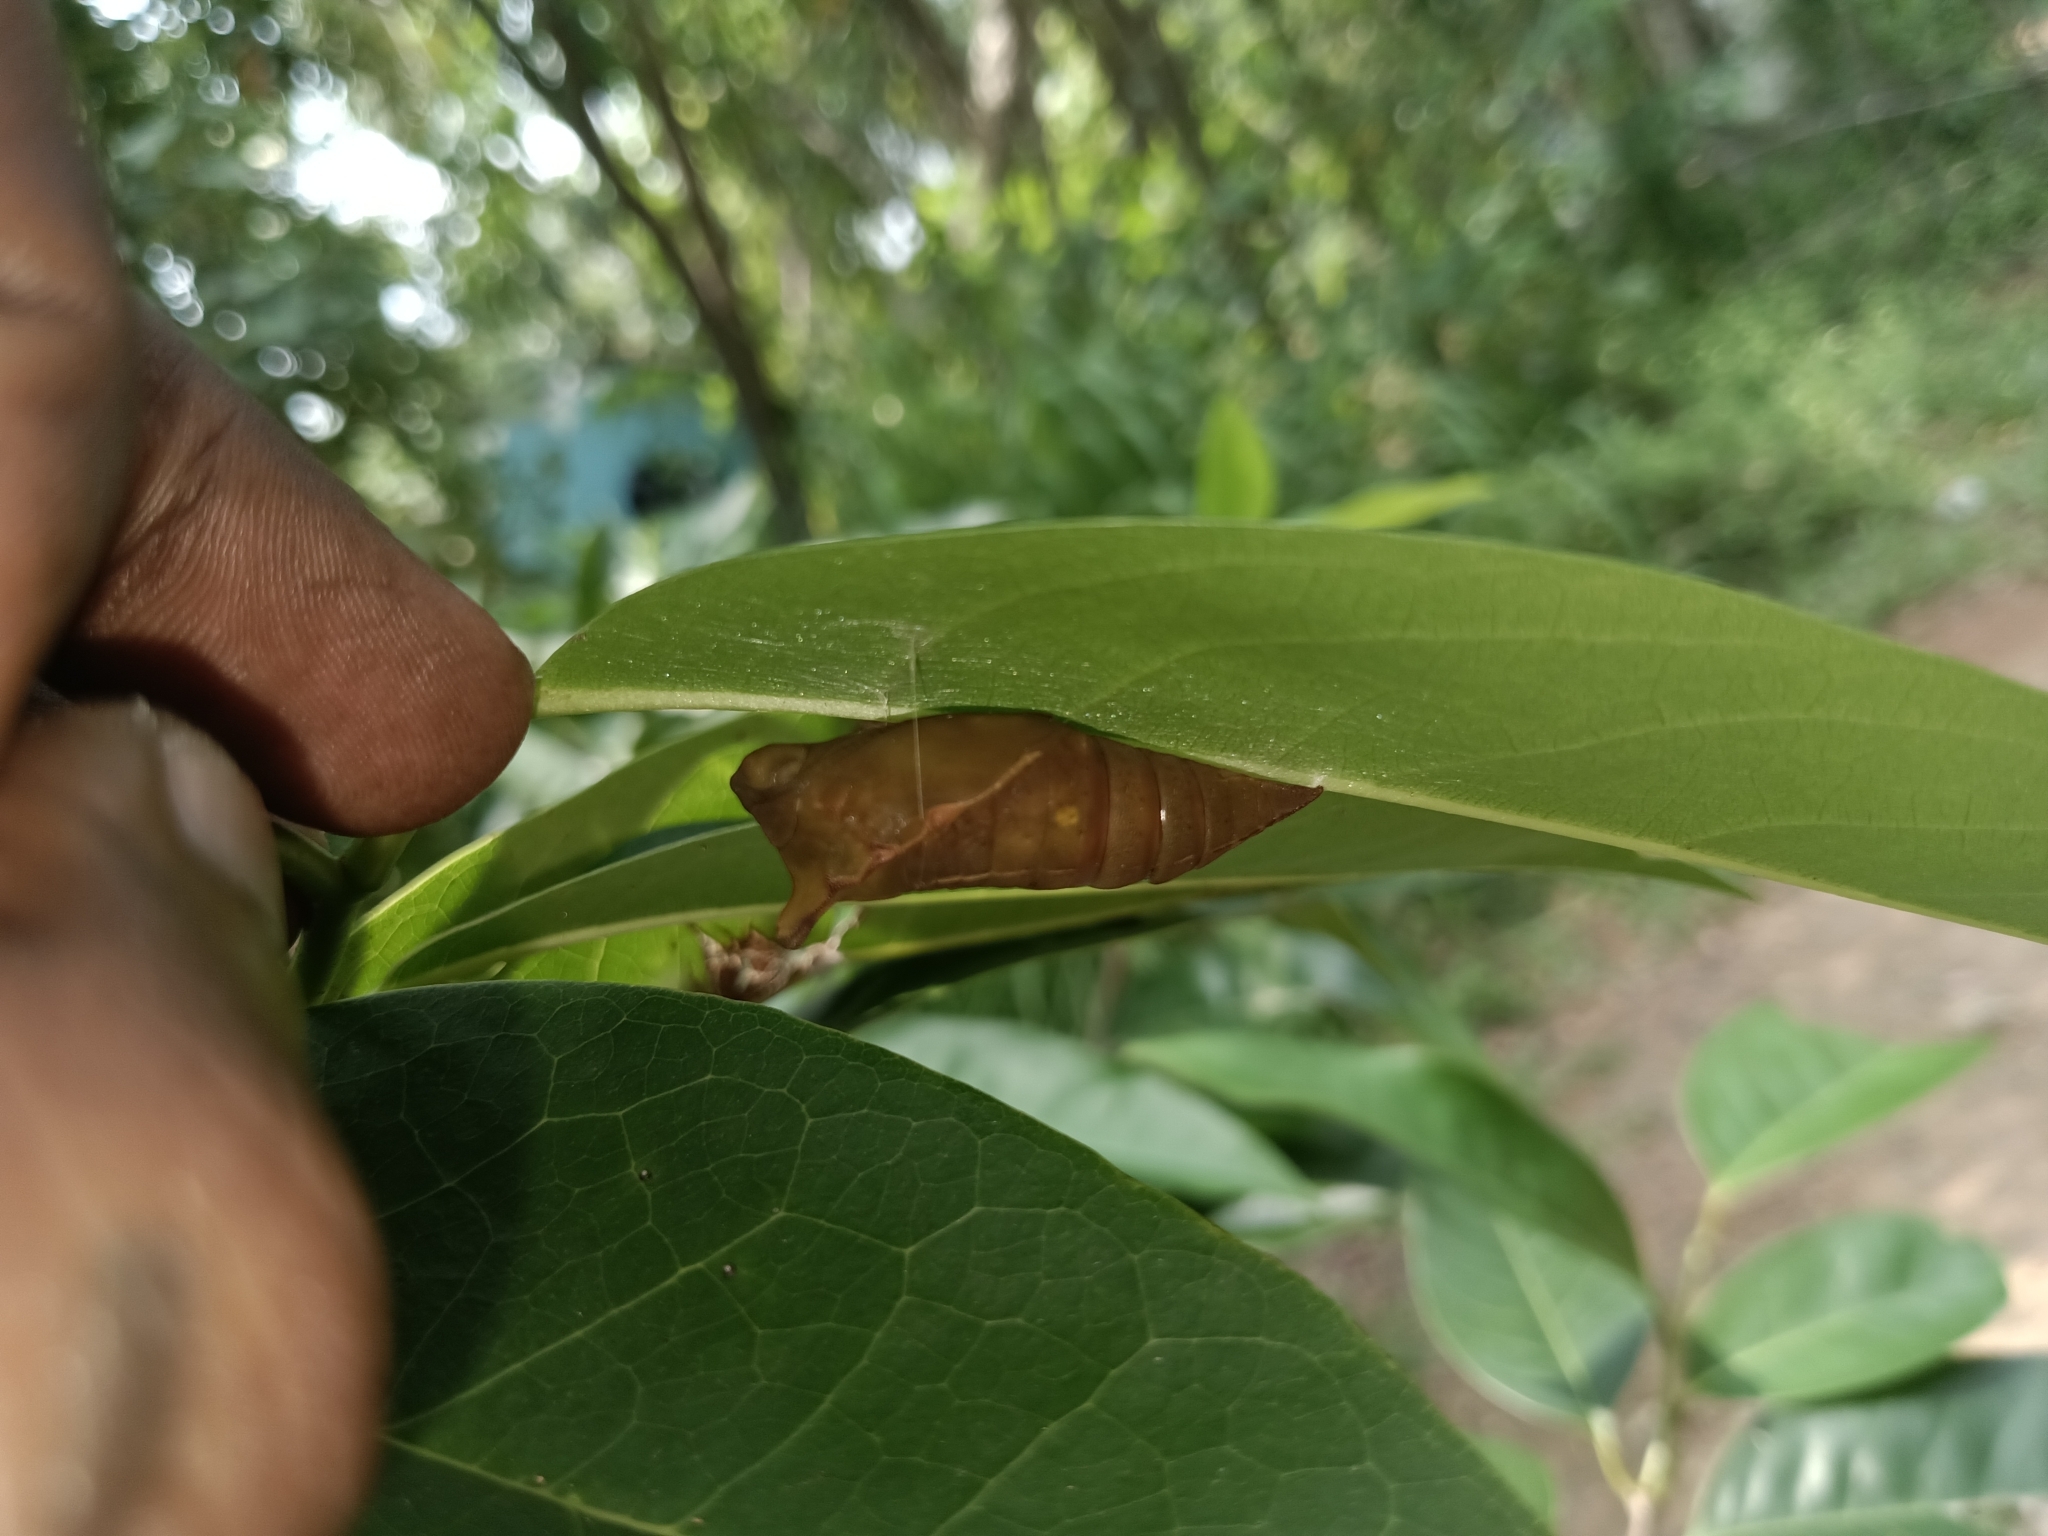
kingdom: Animalia
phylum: Arthropoda
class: Insecta
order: Lepidoptera
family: Papilionidae
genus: Graphium
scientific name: Graphium agamemnon
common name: Tailed jay
